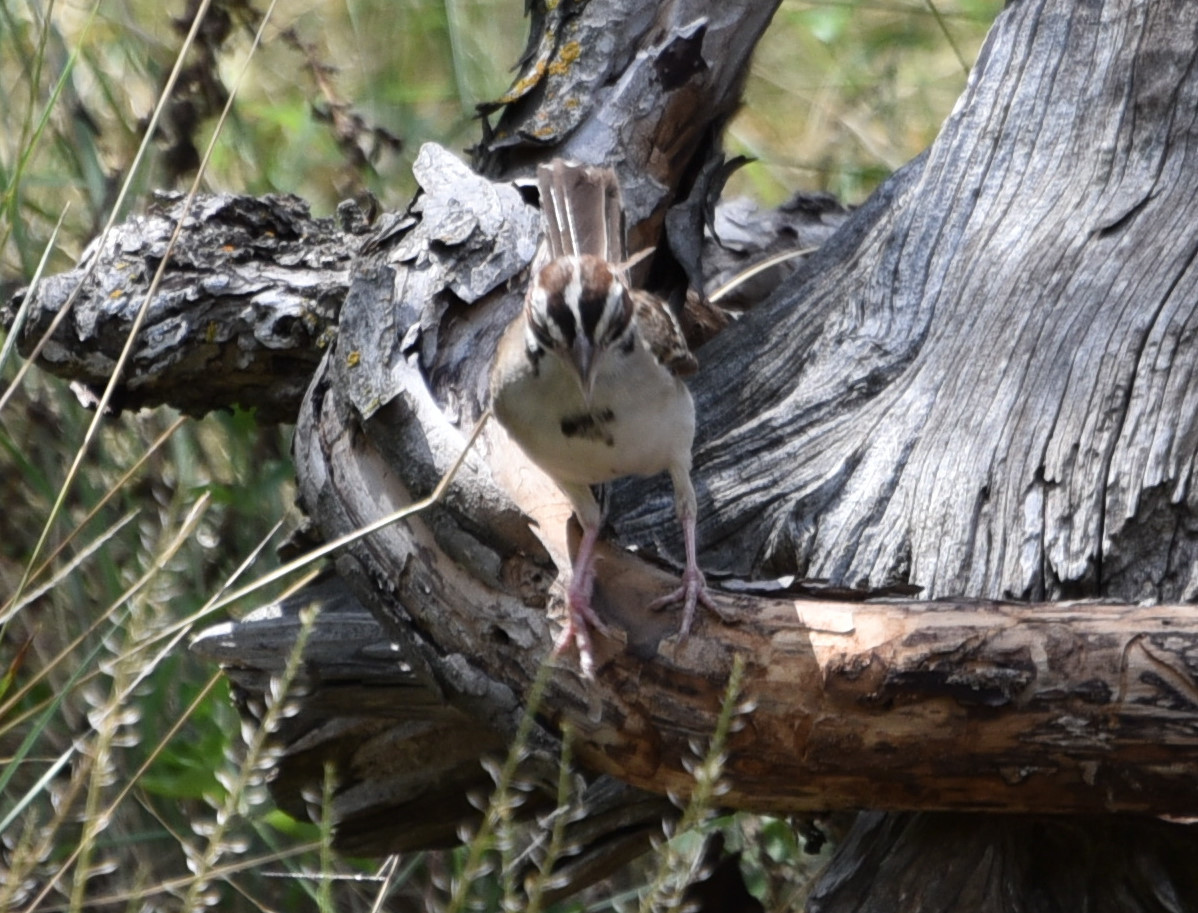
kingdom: Animalia
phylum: Chordata
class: Aves
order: Passeriformes
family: Passerellidae
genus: Chondestes
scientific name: Chondestes grammacus
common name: Lark sparrow
